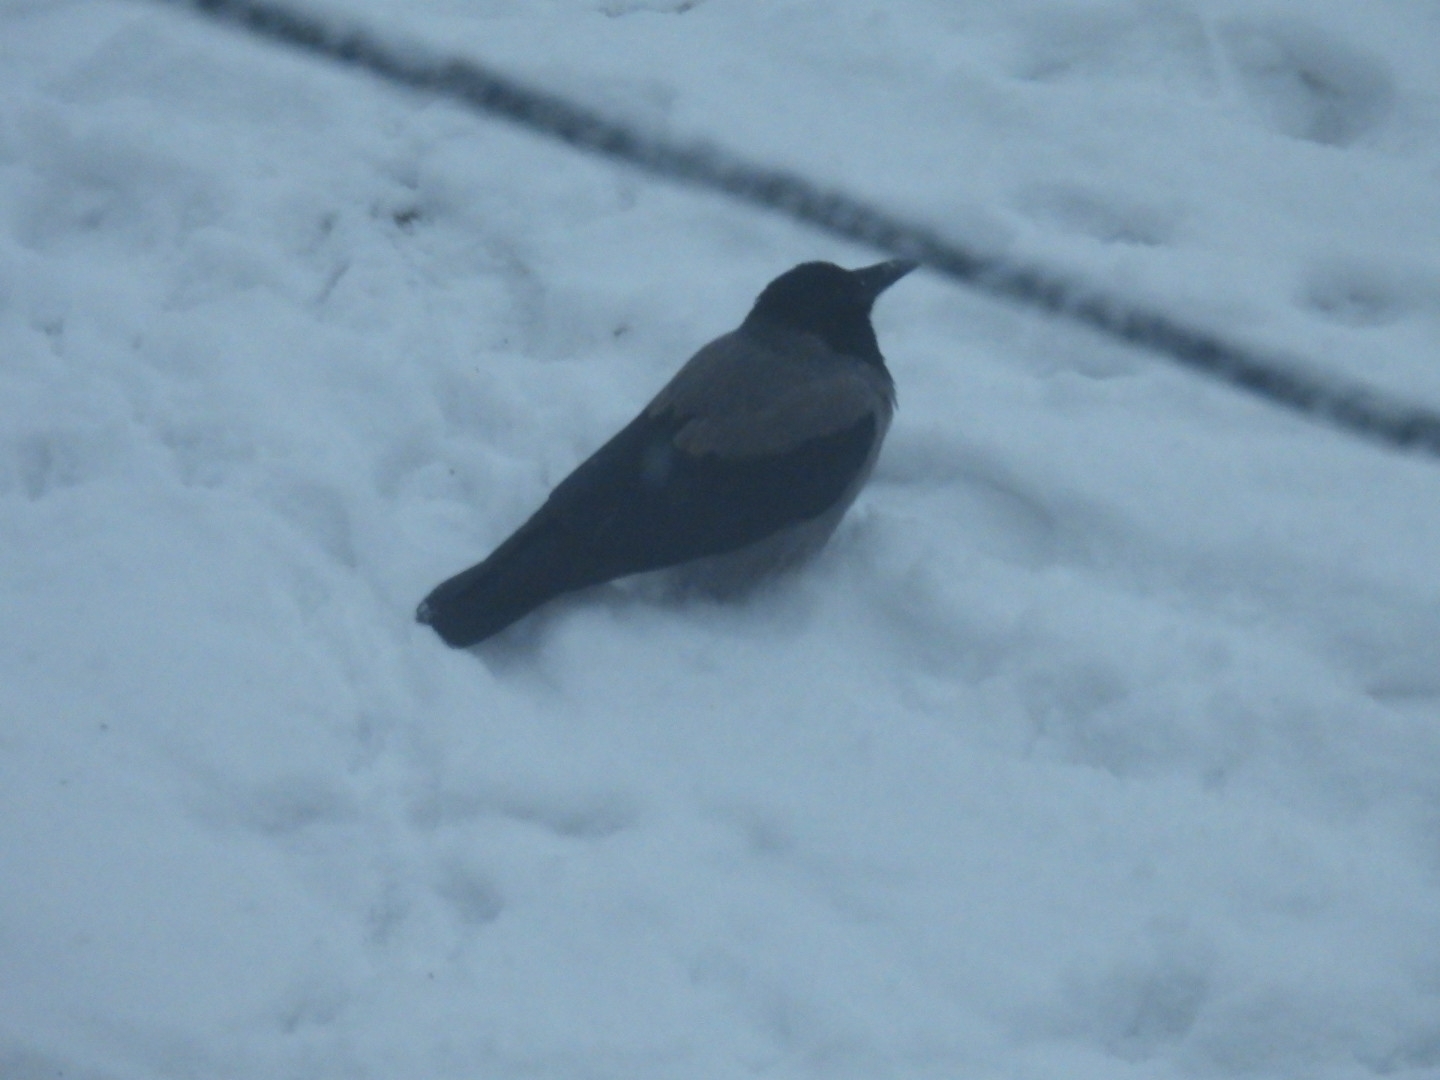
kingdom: Animalia
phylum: Chordata
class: Aves
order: Passeriformes
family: Corvidae
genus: Corvus
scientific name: Corvus cornix
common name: Hooded crow
